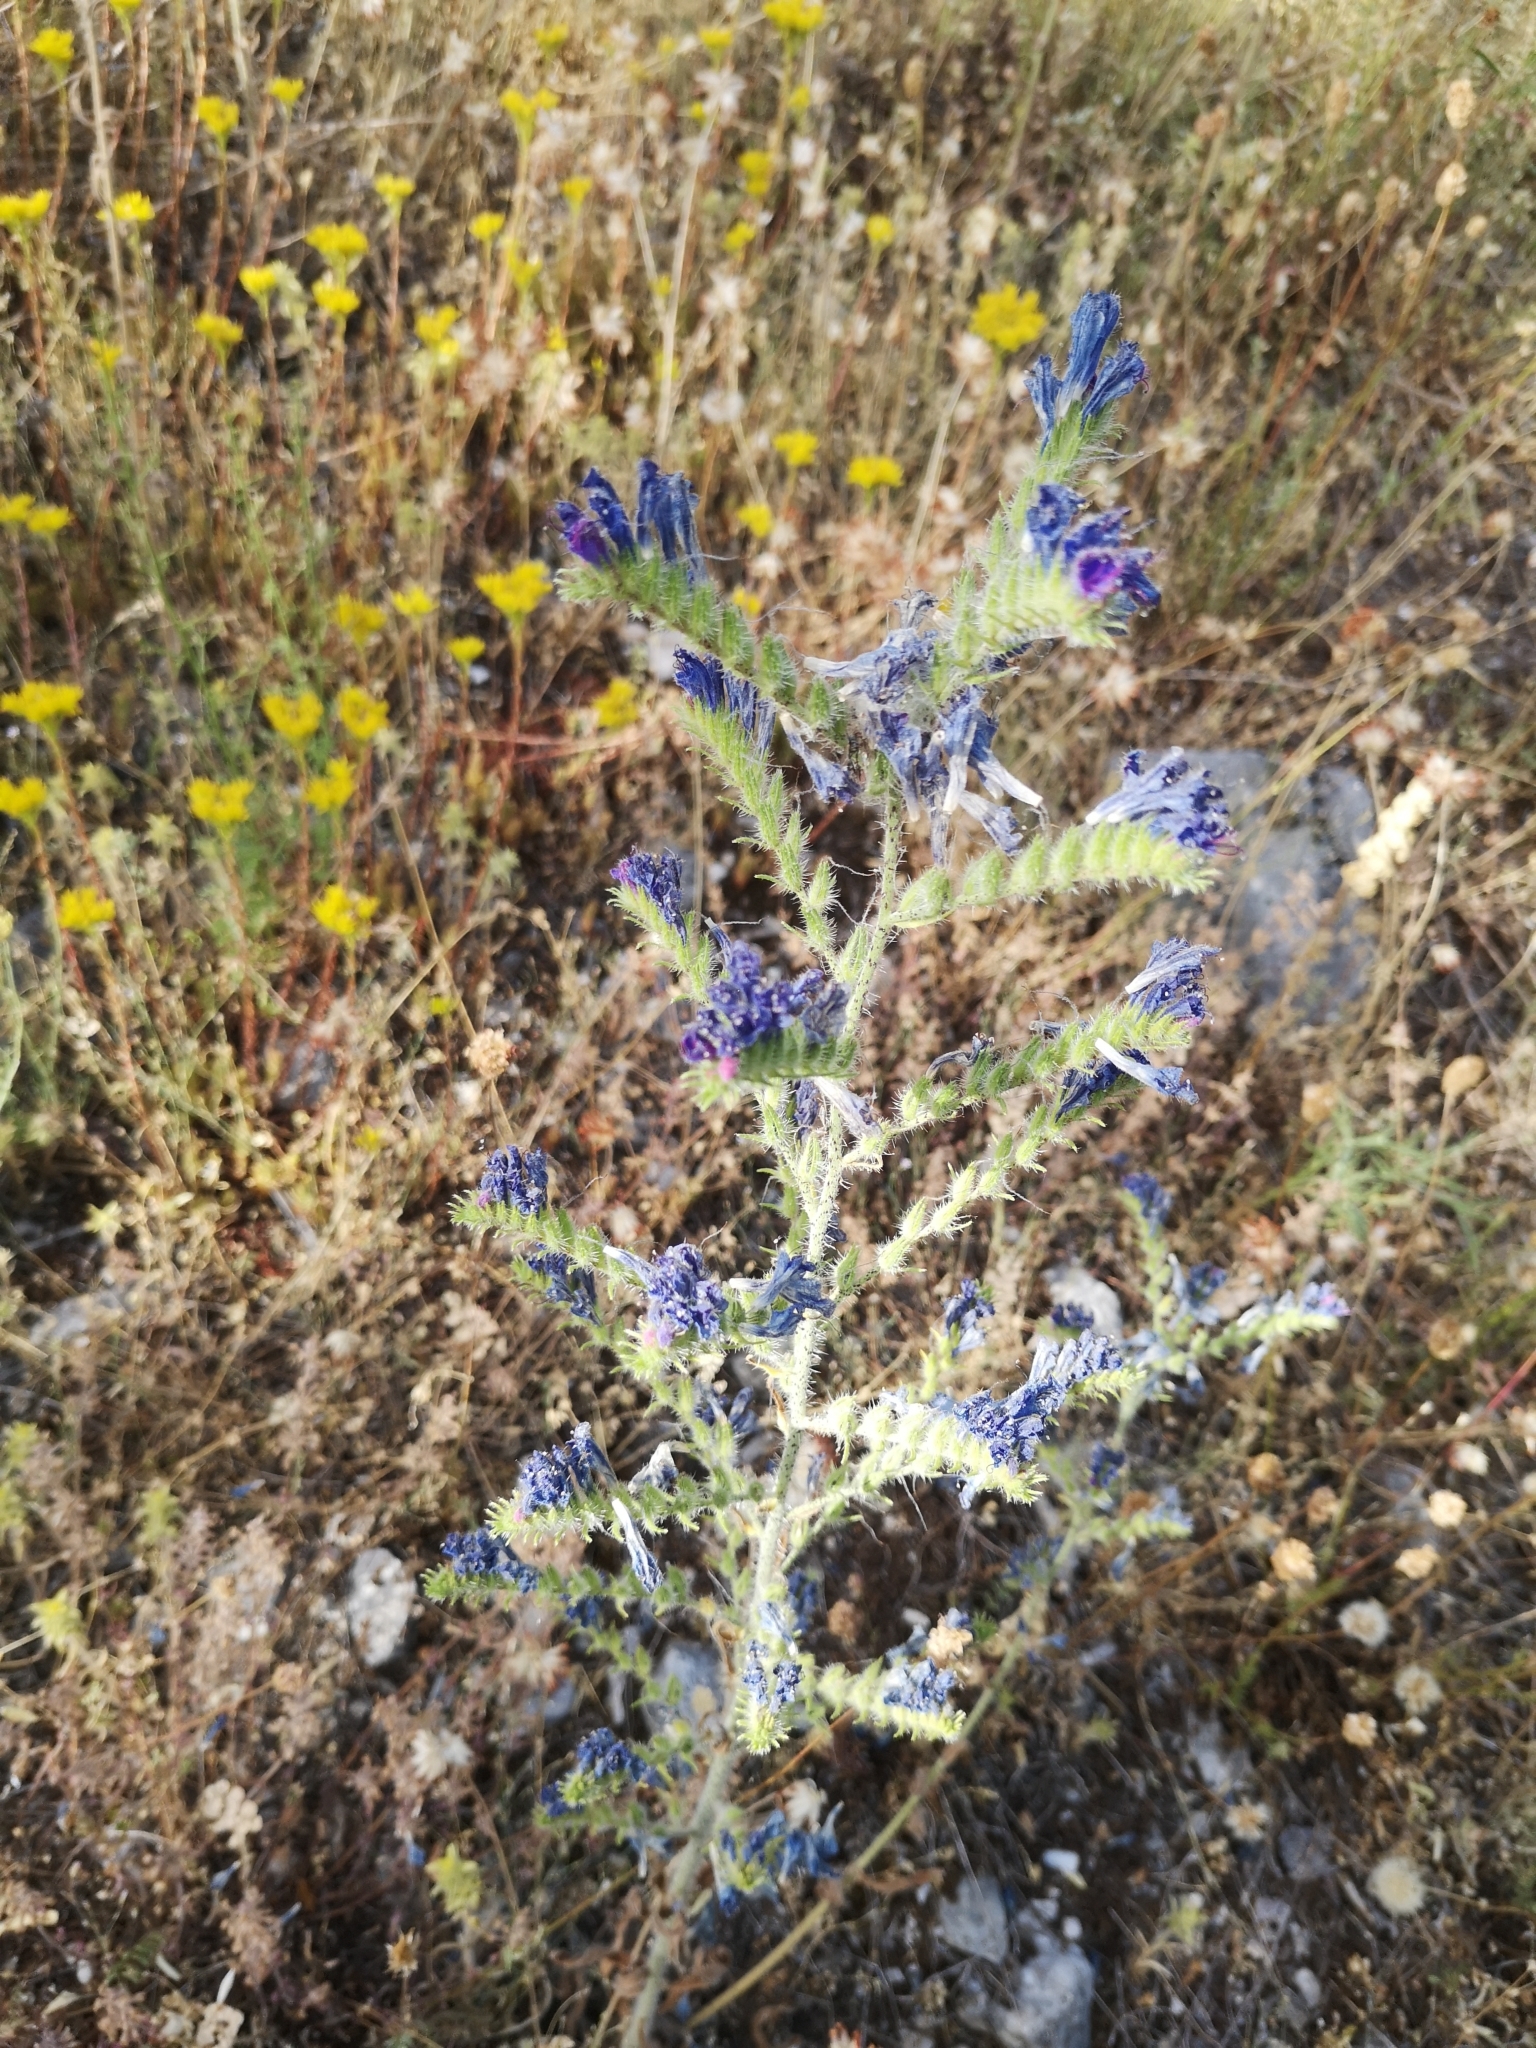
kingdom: Plantae
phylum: Tracheophyta
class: Magnoliopsida
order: Boraginales
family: Boraginaceae
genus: Echium
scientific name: Echium vulgare
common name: Common viper's bugloss
